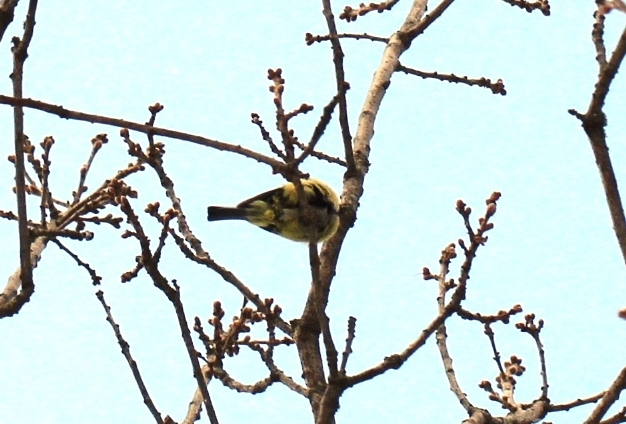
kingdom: Animalia
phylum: Chordata
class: Aves
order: Passeriformes
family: Paridae
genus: Cyanistes
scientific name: Cyanistes caeruleus
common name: Eurasian blue tit
